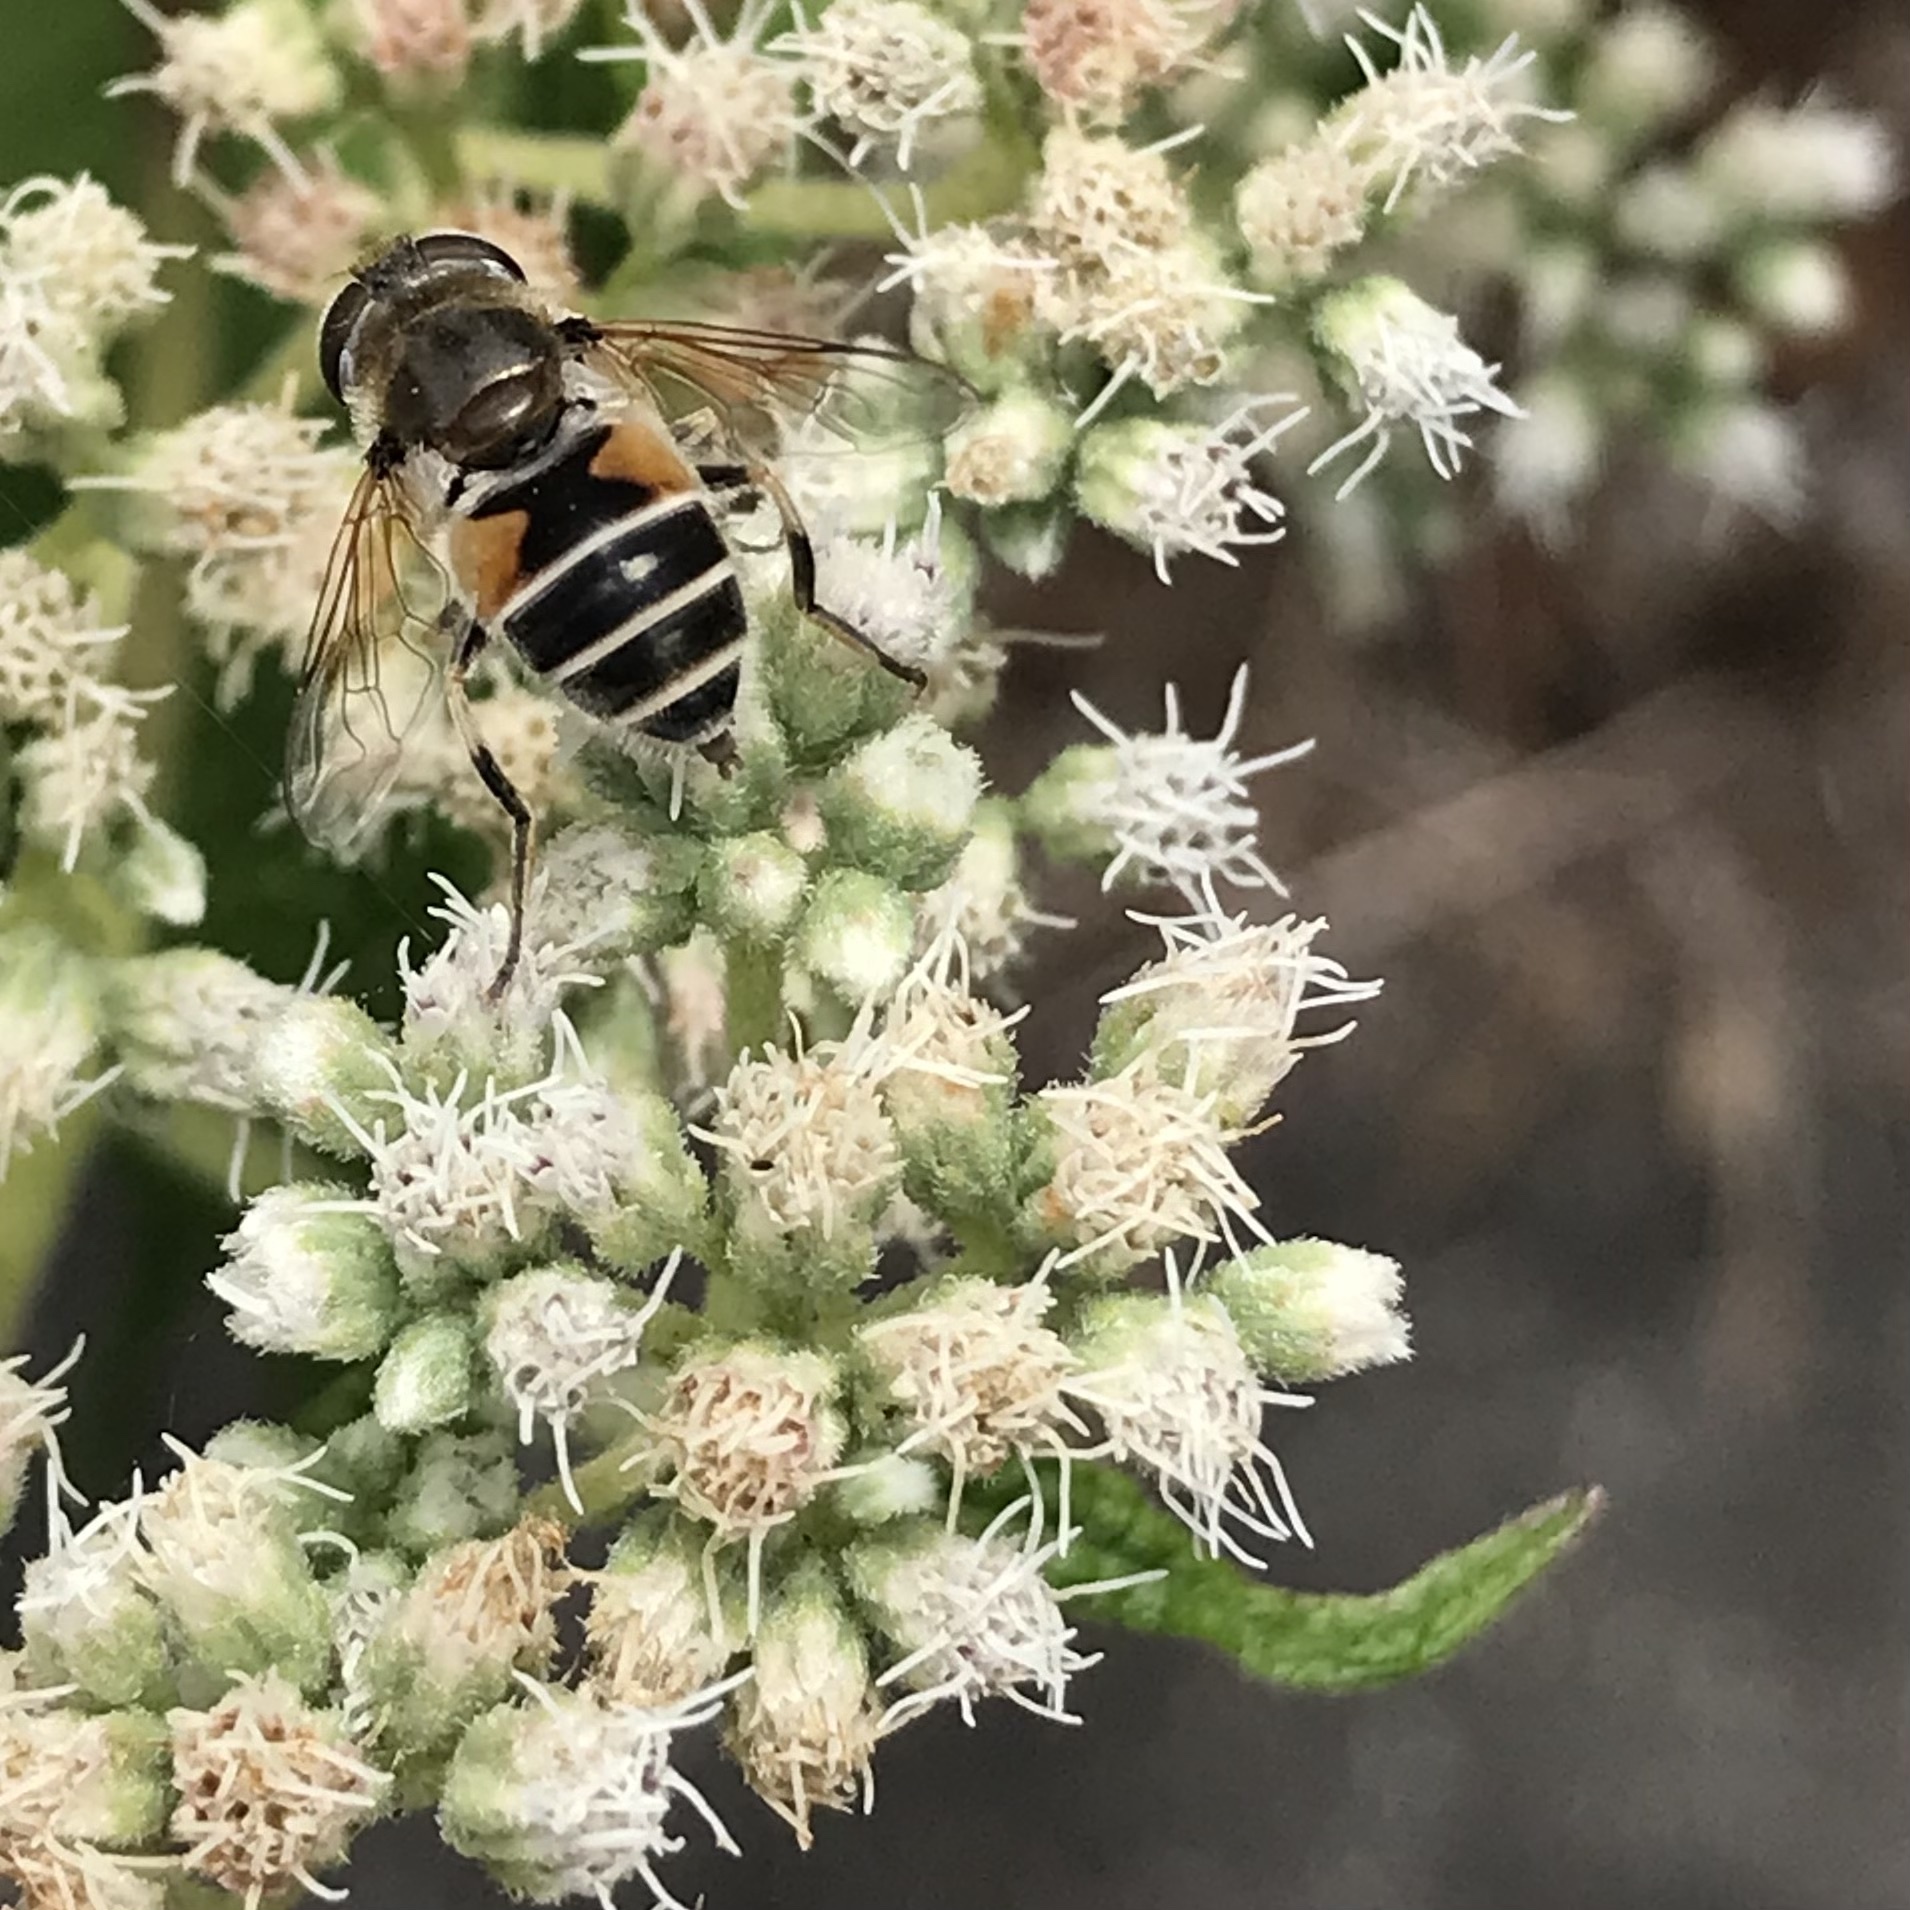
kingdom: Animalia
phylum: Arthropoda
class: Insecta
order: Diptera
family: Syrphidae
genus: Eristalis
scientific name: Eristalis arbustorum
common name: Hover fly
